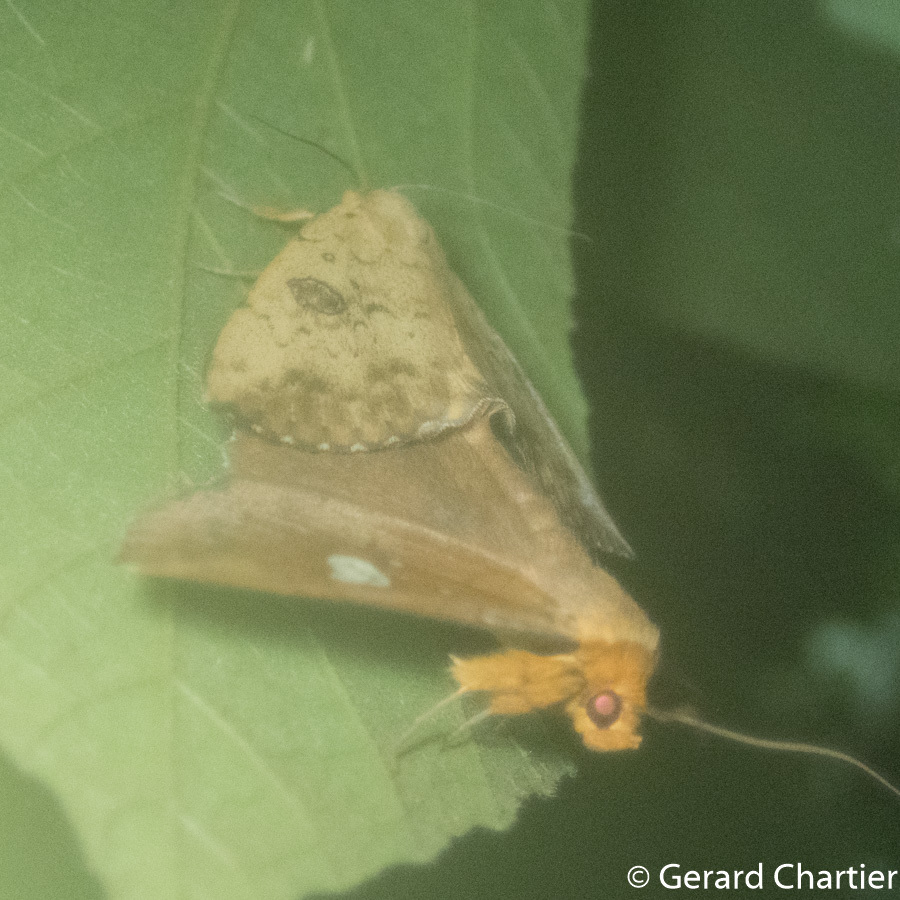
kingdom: Animalia
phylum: Arthropoda
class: Insecta
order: Lepidoptera
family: Erebidae
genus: Talariga
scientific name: Talariga capacior
